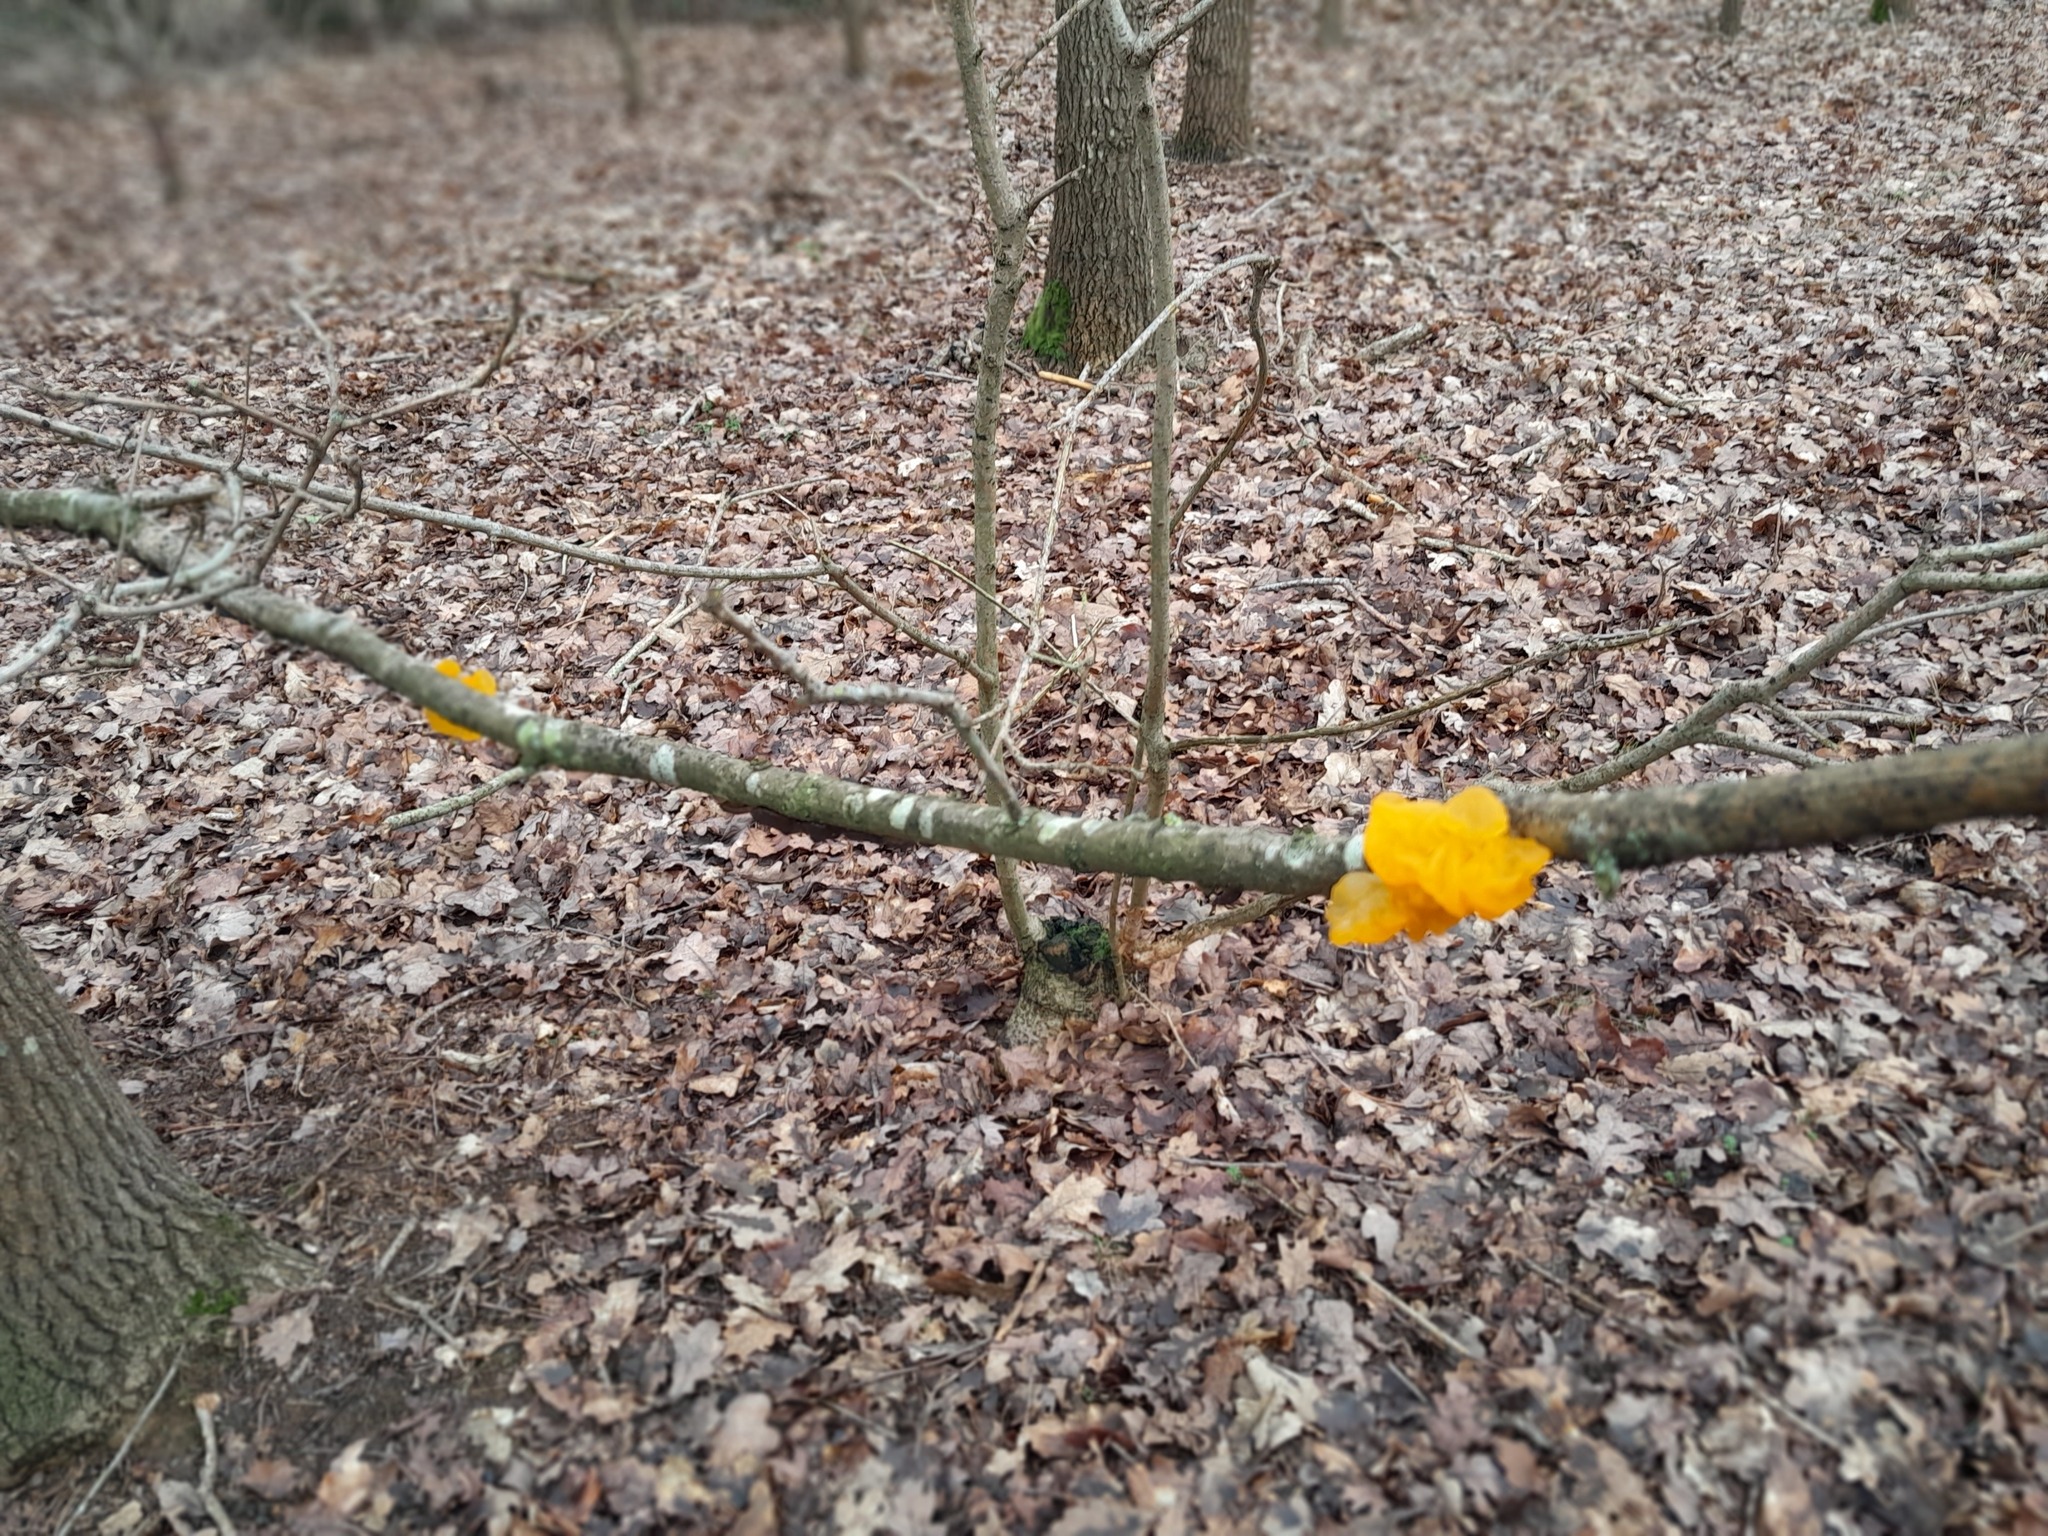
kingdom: Fungi
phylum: Basidiomycota
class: Tremellomycetes
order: Tremellales
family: Tremellaceae
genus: Tremella
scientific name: Tremella mesenterica
